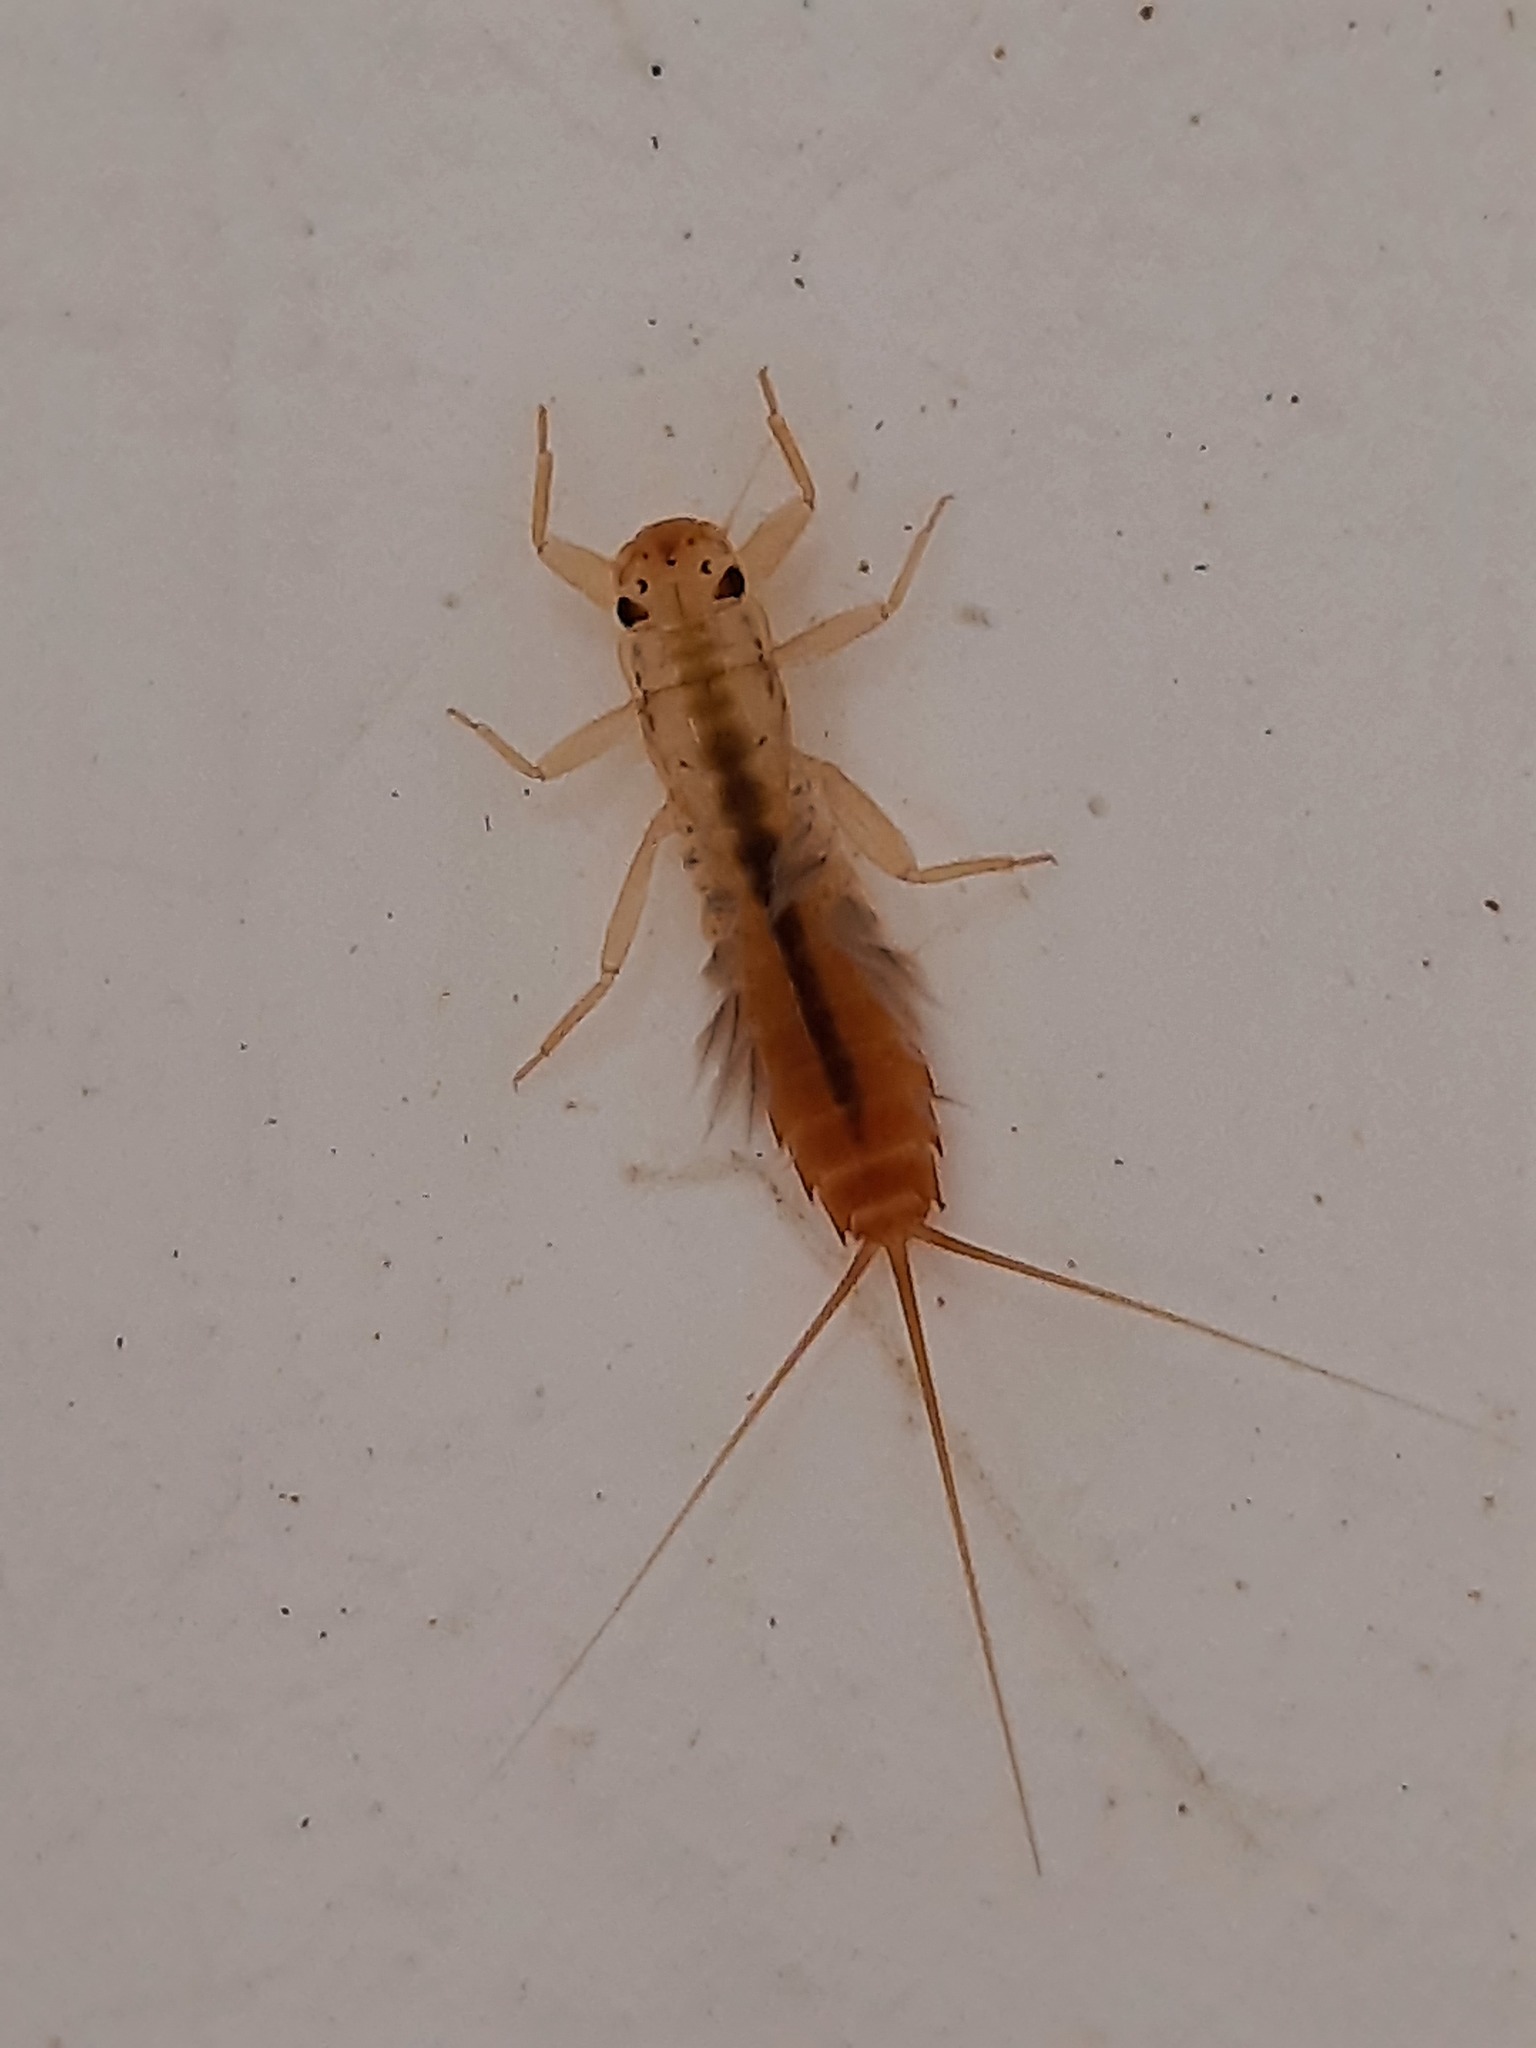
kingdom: Animalia
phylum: Arthropoda
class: Insecta
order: Ephemeroptera
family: Leptophlebiidae
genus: Acanthophlebia
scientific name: Acanthophlebia cruentata
